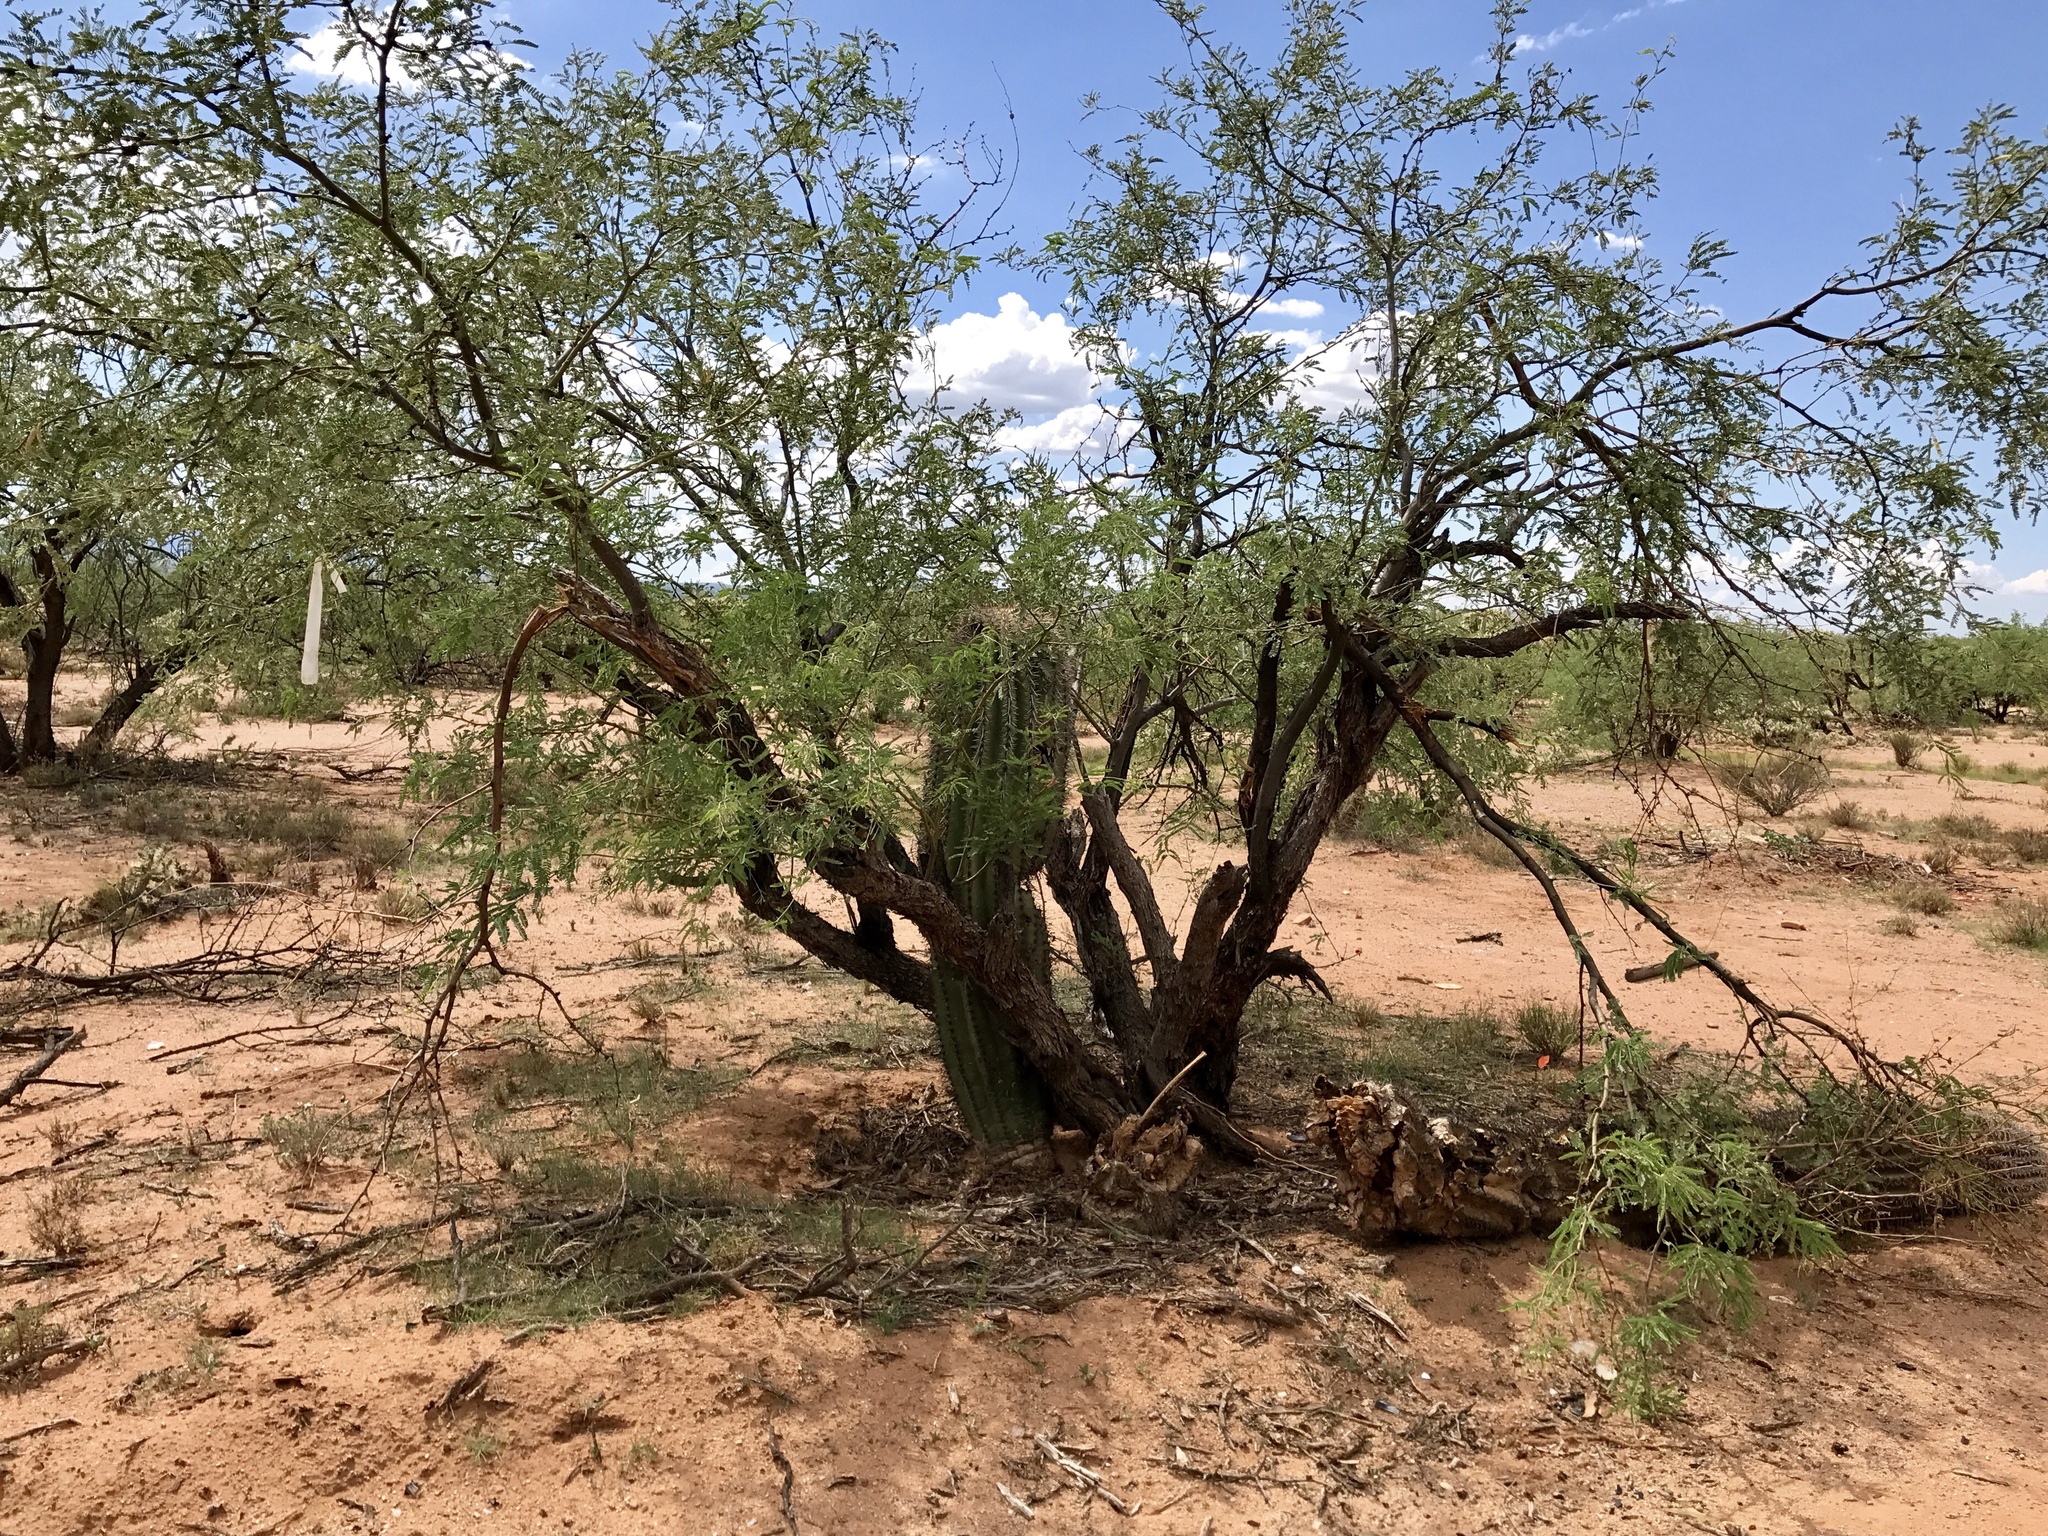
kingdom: Plantae
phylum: Tracheophyta
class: Magnoliopsida
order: Fabales
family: Fabaceae
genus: Prosopis
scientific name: Prosopis velutina
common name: Velvet mesquite
